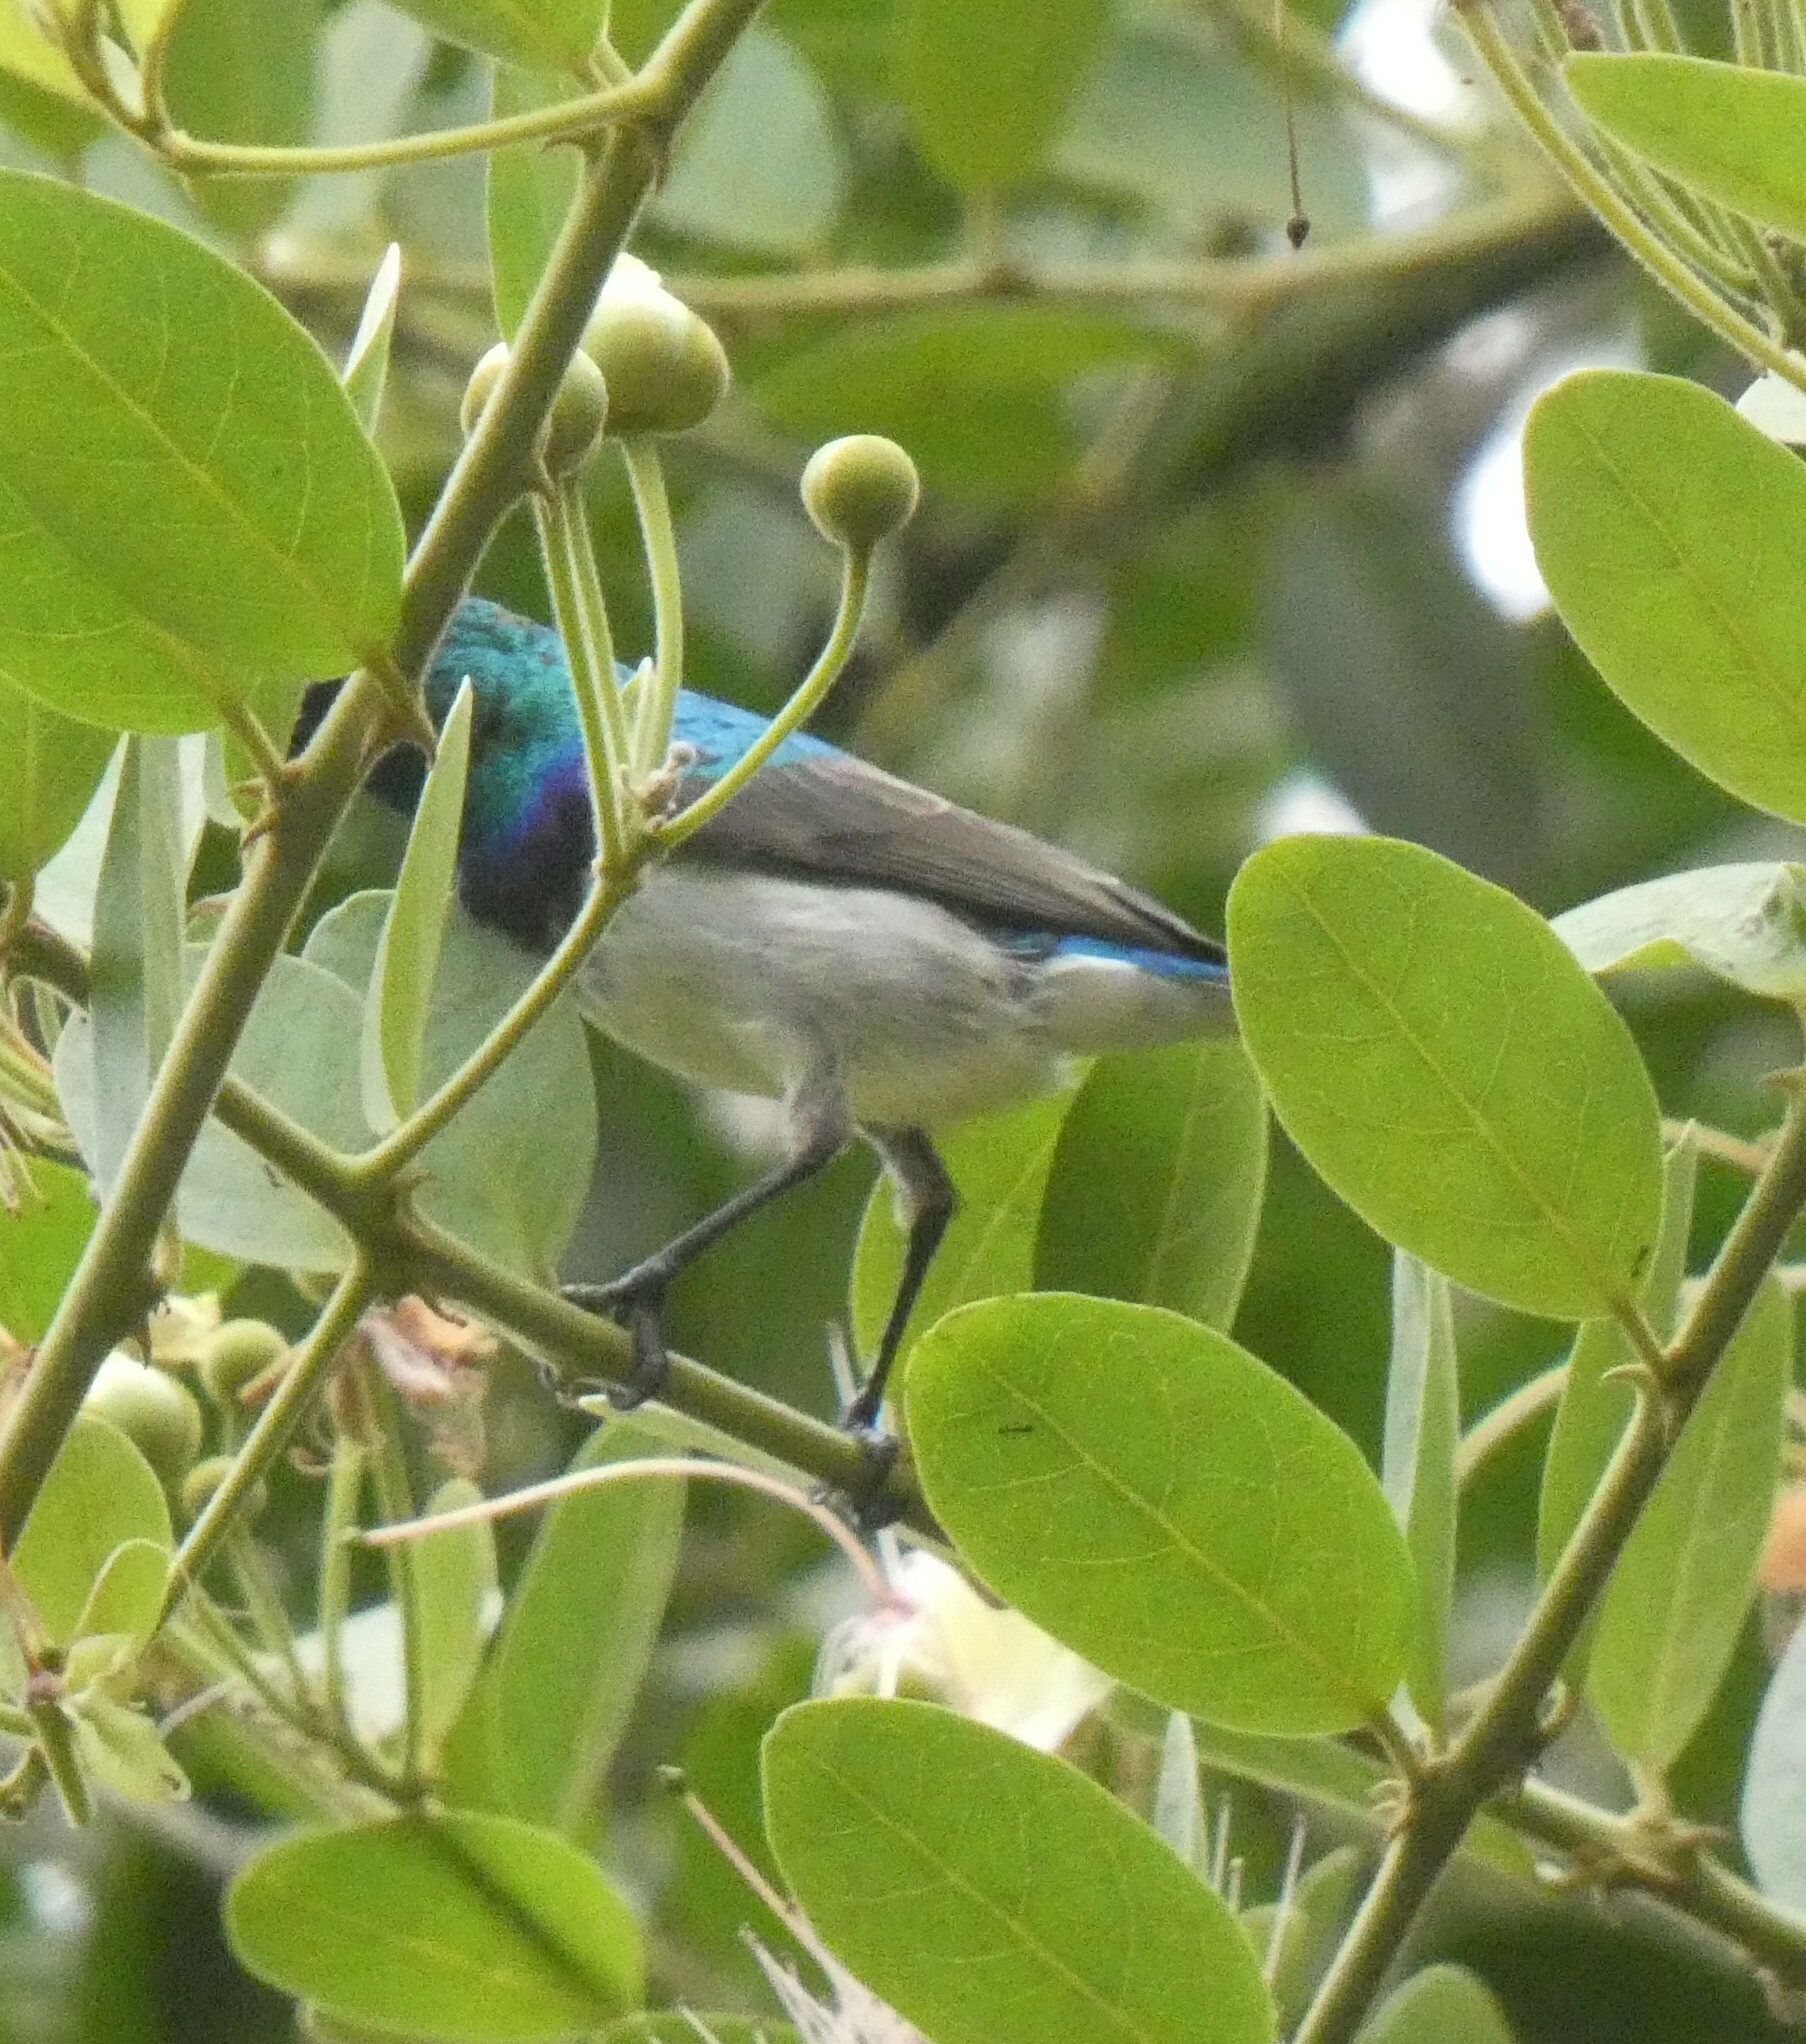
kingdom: Animalia
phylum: Chordata
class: Aves
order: Passeriformes
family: Nectariniidae
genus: Cinnyris
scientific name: Cinnyris talatala
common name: White-bellied sunbird
